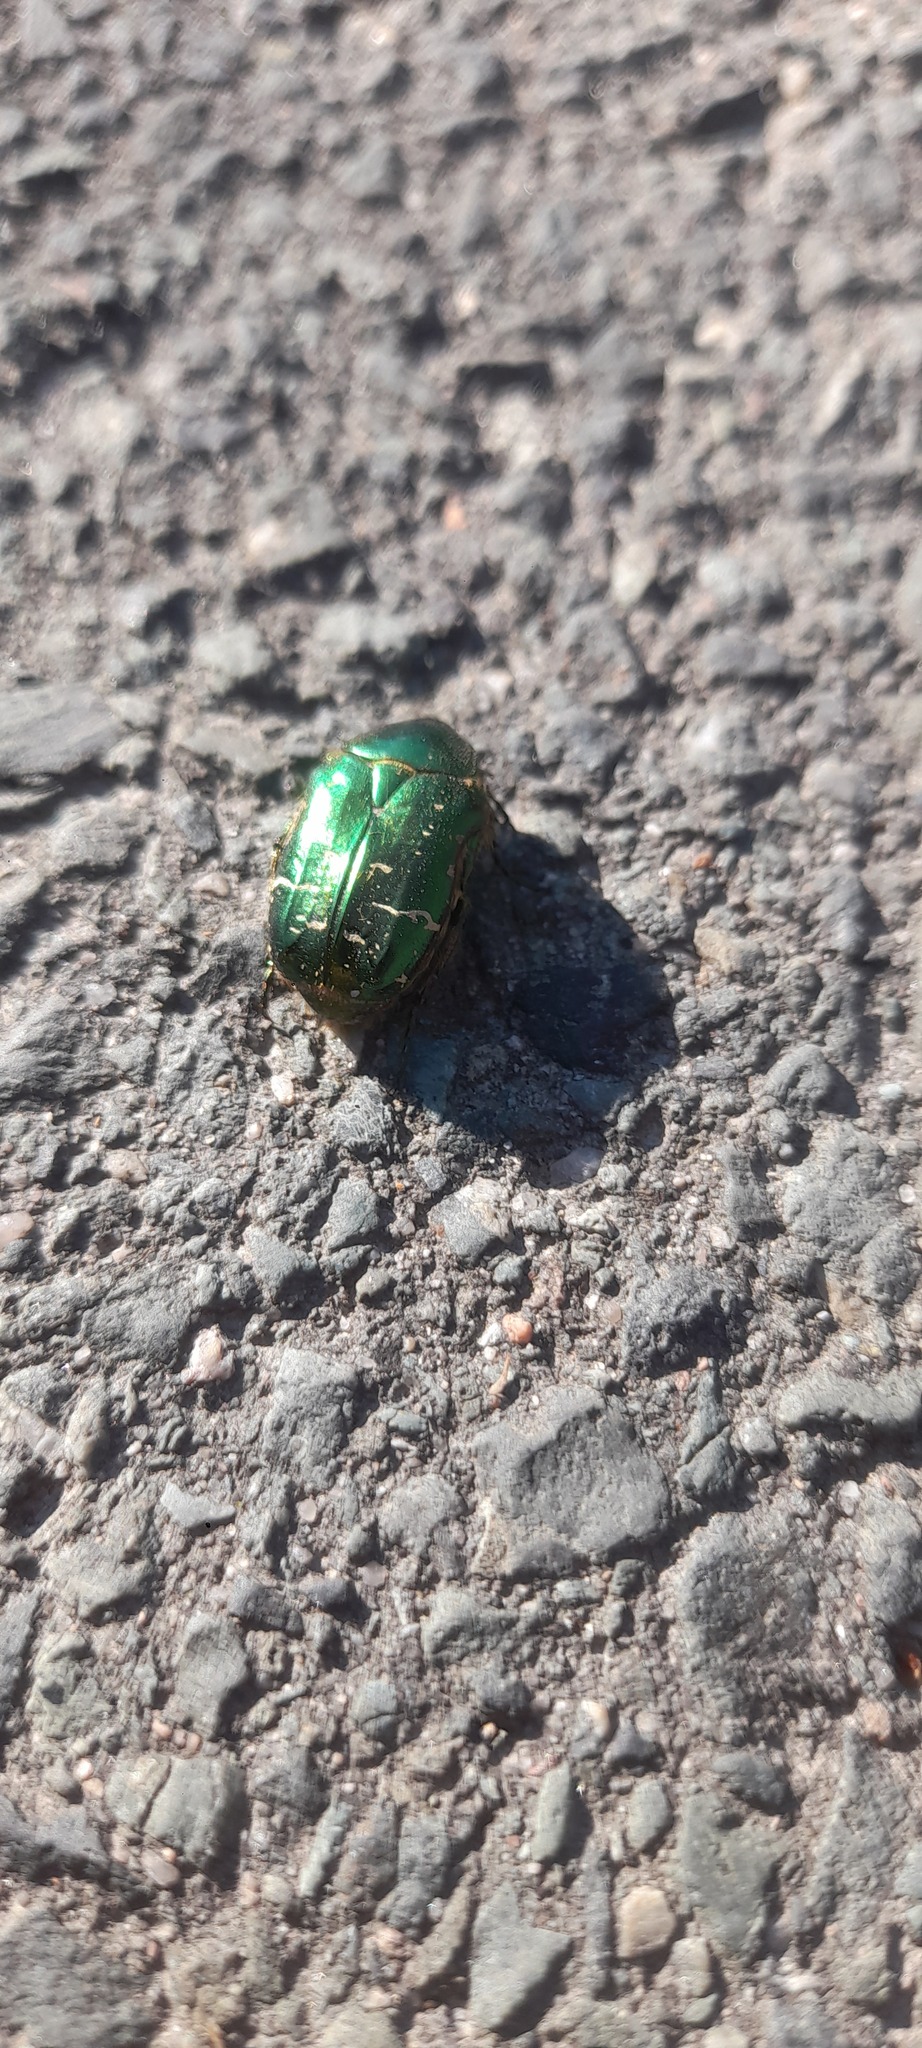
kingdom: Animalia
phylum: Arthropoda
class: Insecta
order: Coleoptera
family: Scarabaeidae
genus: Cetonia
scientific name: Cetonia aurata
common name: Rose chafer
